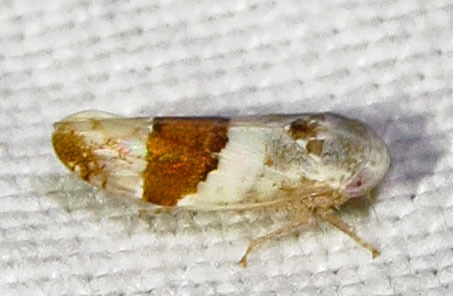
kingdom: Animalia
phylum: Arthropoda
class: Insecta
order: Hemiptera
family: Cicadellidae
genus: Norvellina
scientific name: Norvellina seminuda
